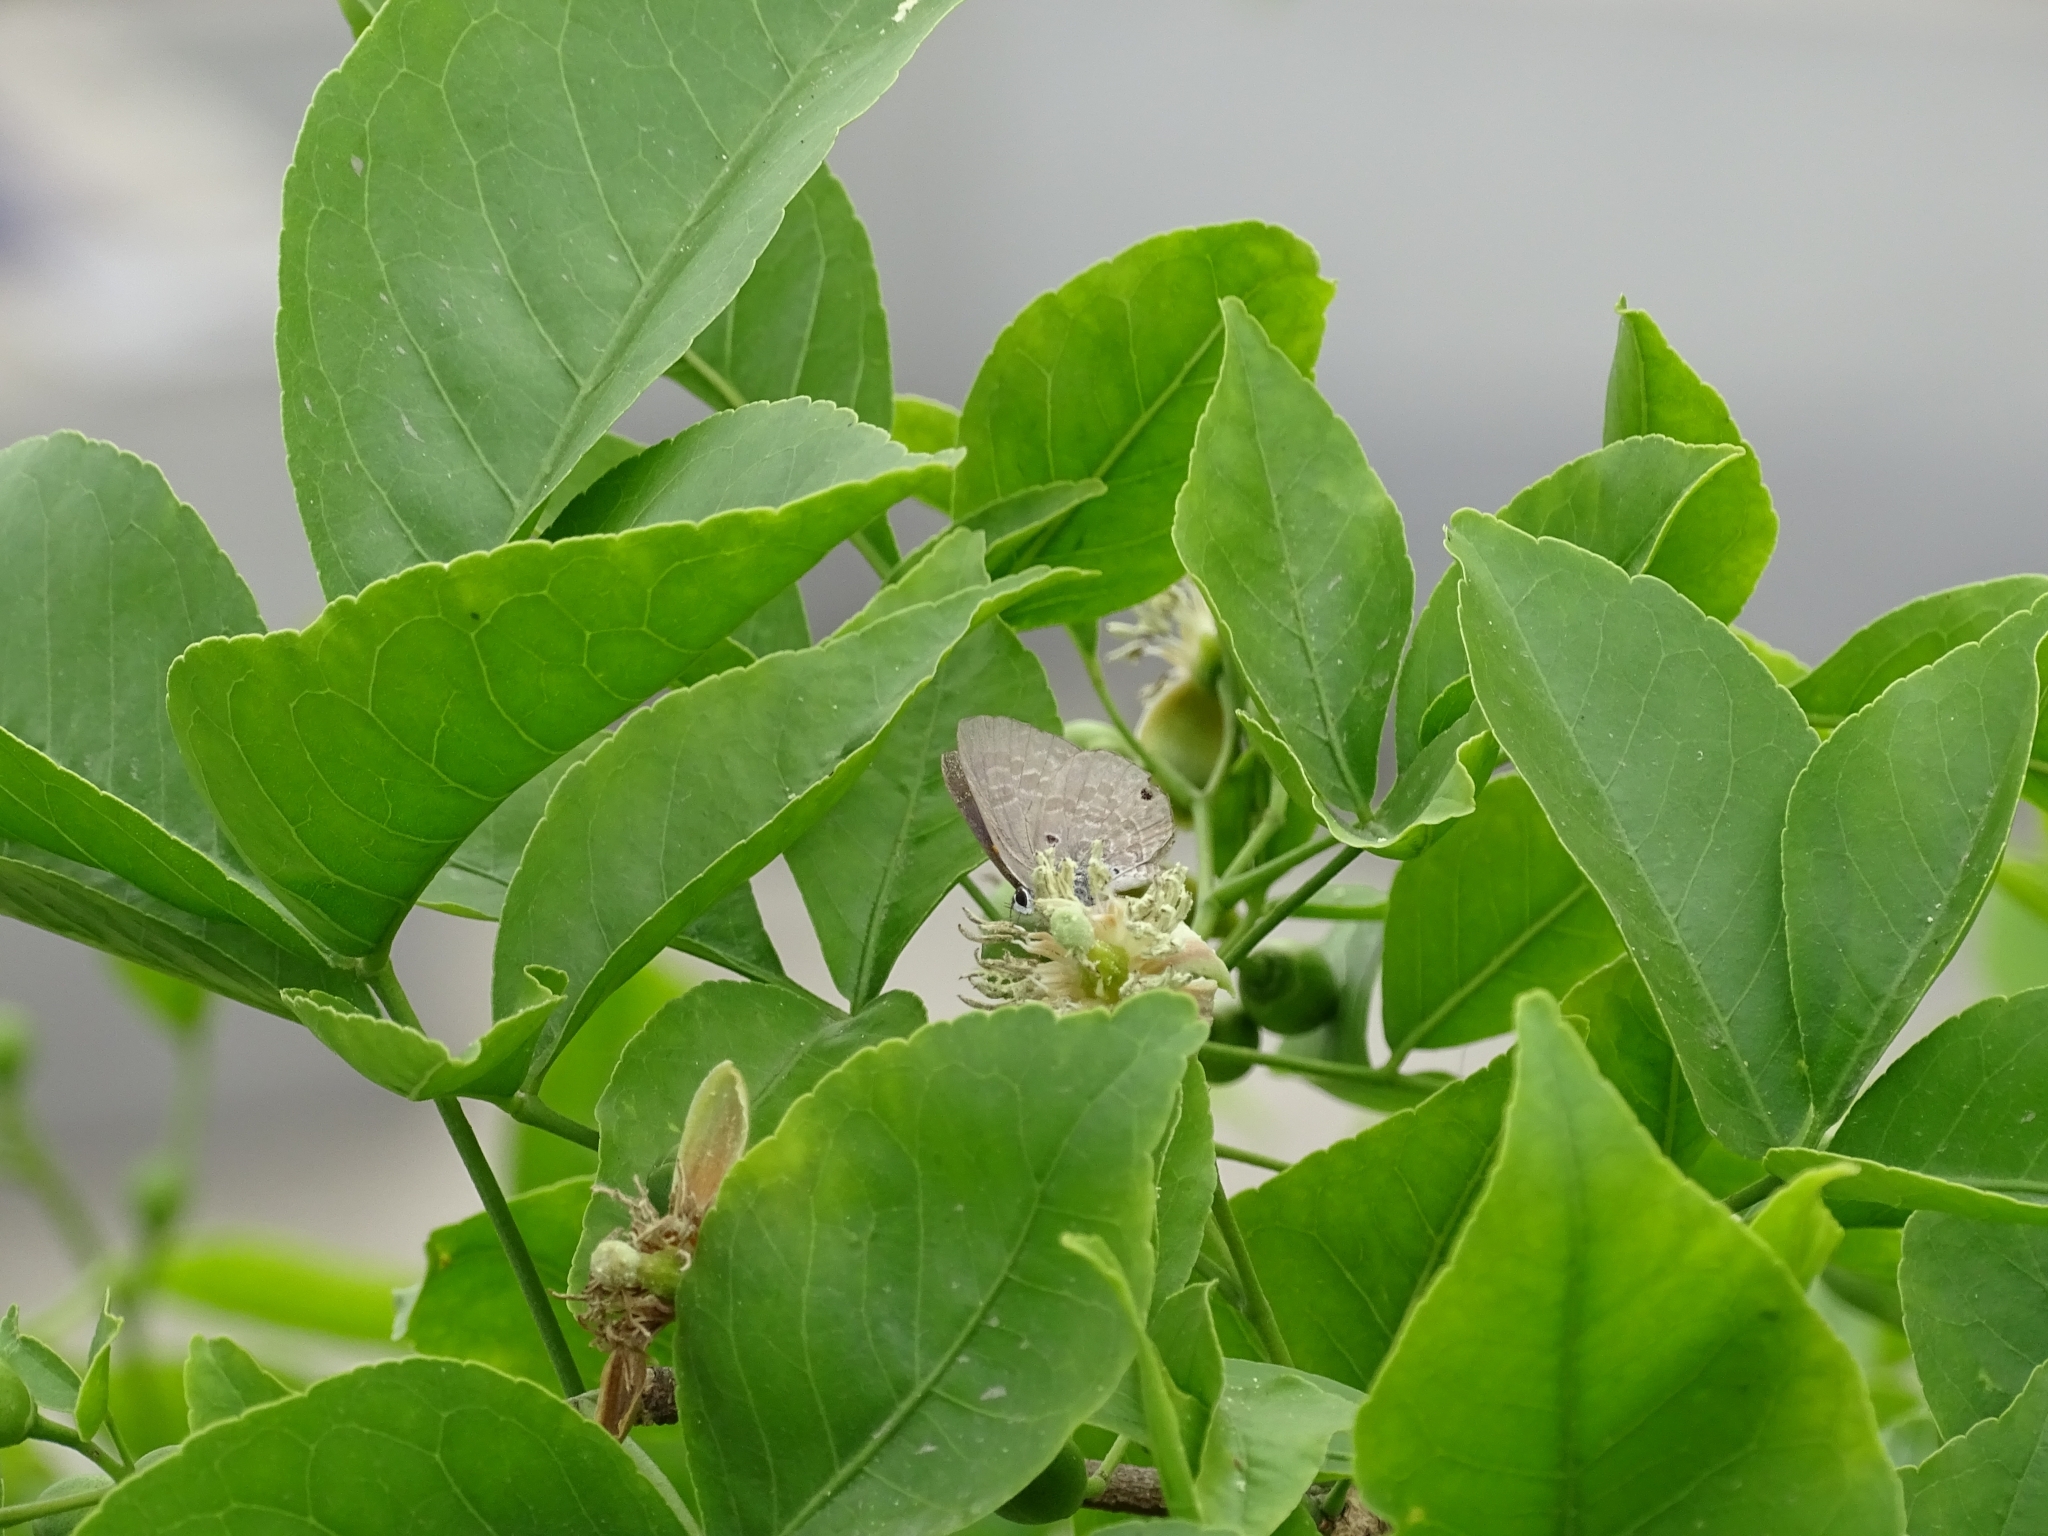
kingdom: Animalia
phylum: Arthropoda
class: Insecta
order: Lepidoptera
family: Lycaenidae
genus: Anthene
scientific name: Anthene lycaenina
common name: Pointed ciliate blue
